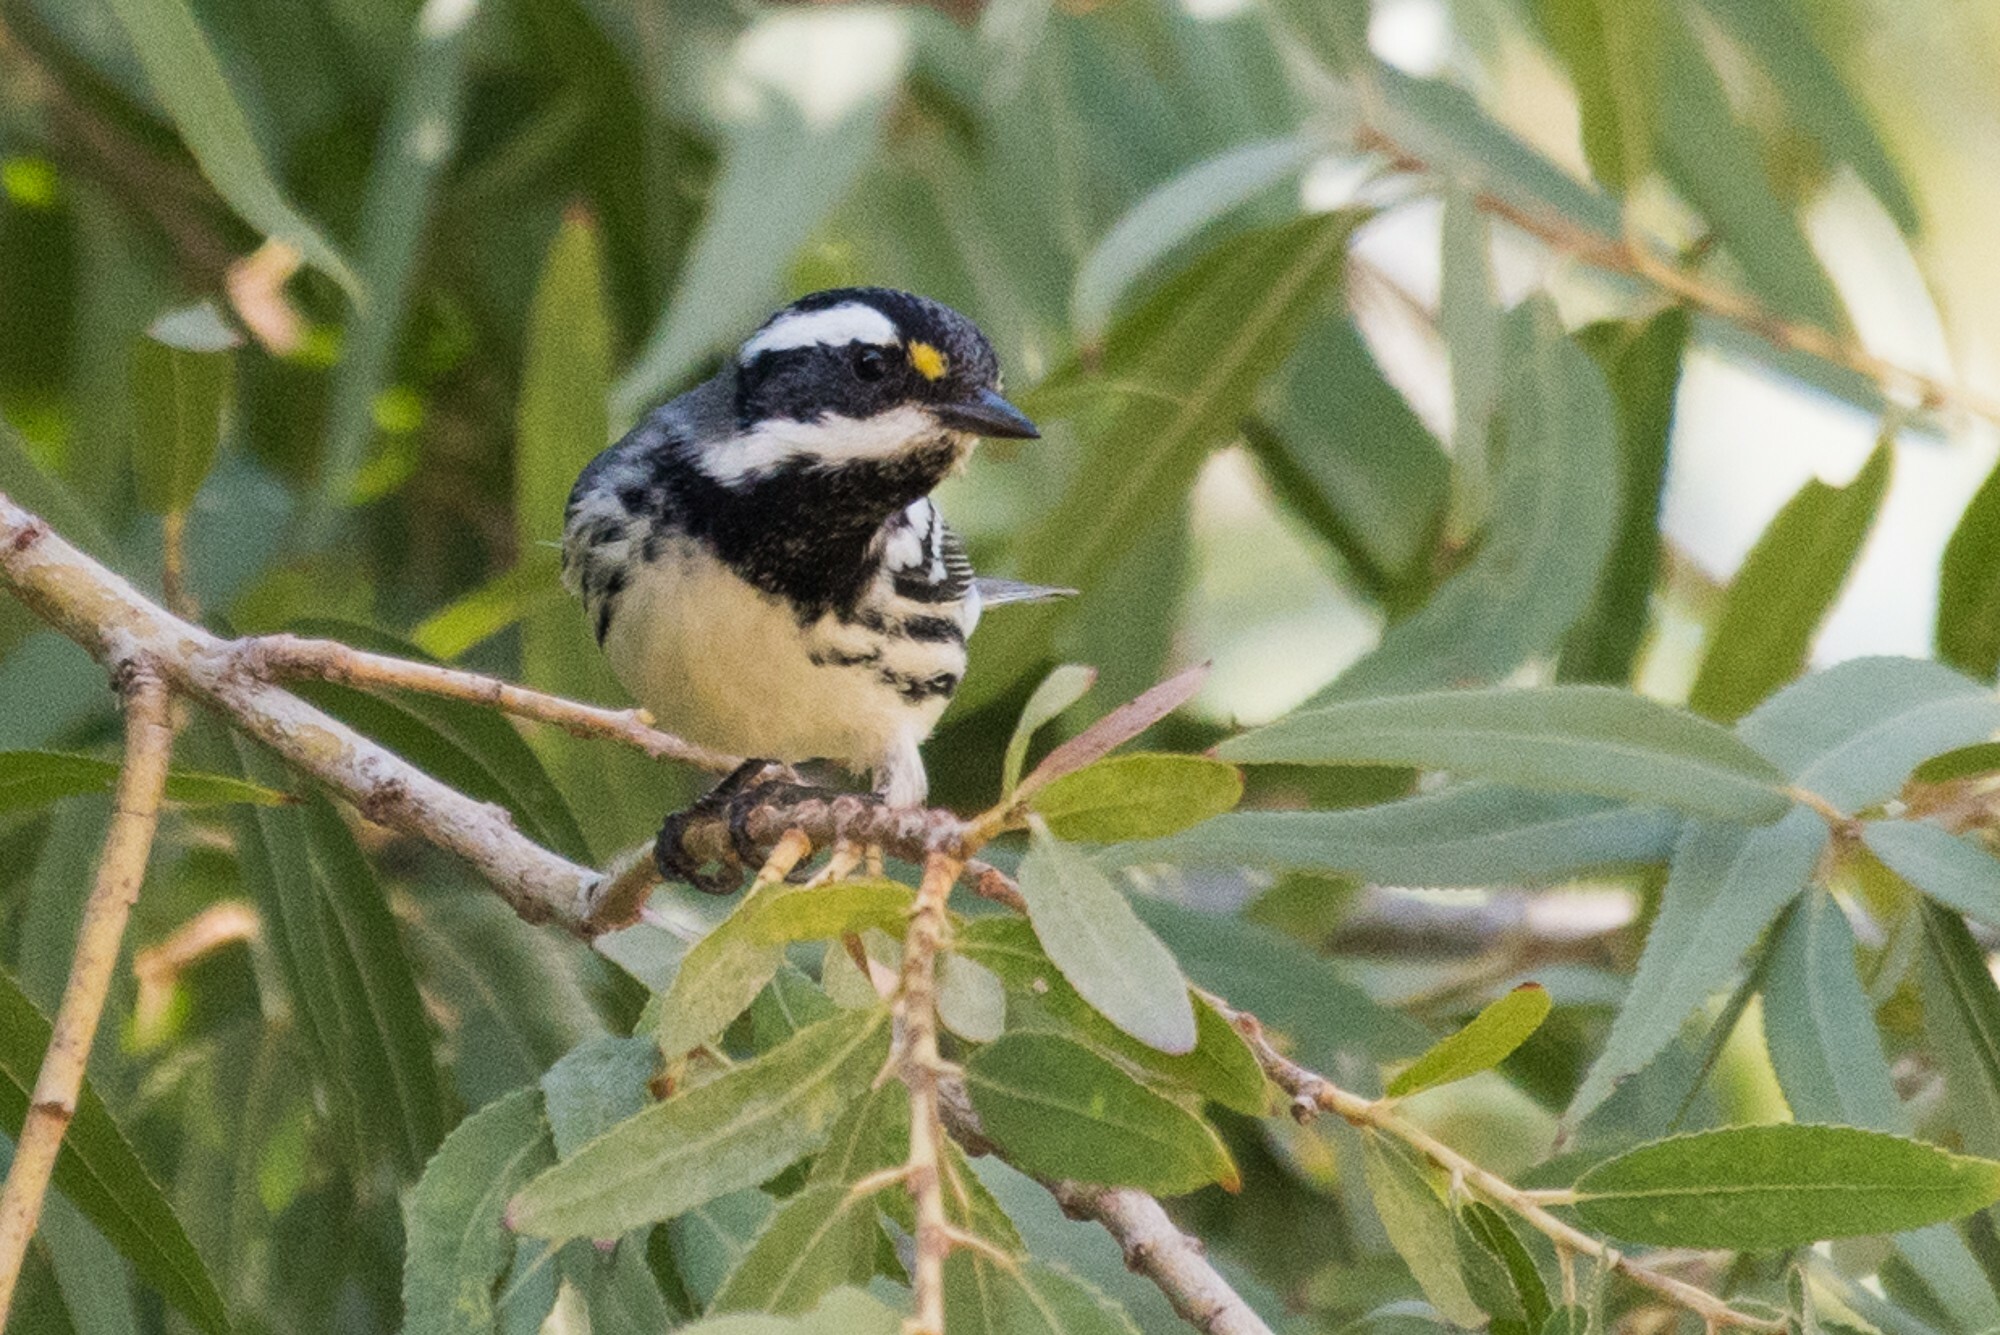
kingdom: Animalia
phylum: Chordata
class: Aves
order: Passeriformes
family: Parulidae
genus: Setophaga
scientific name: Setophaga nigrescens
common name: Black-throated gray warbler
